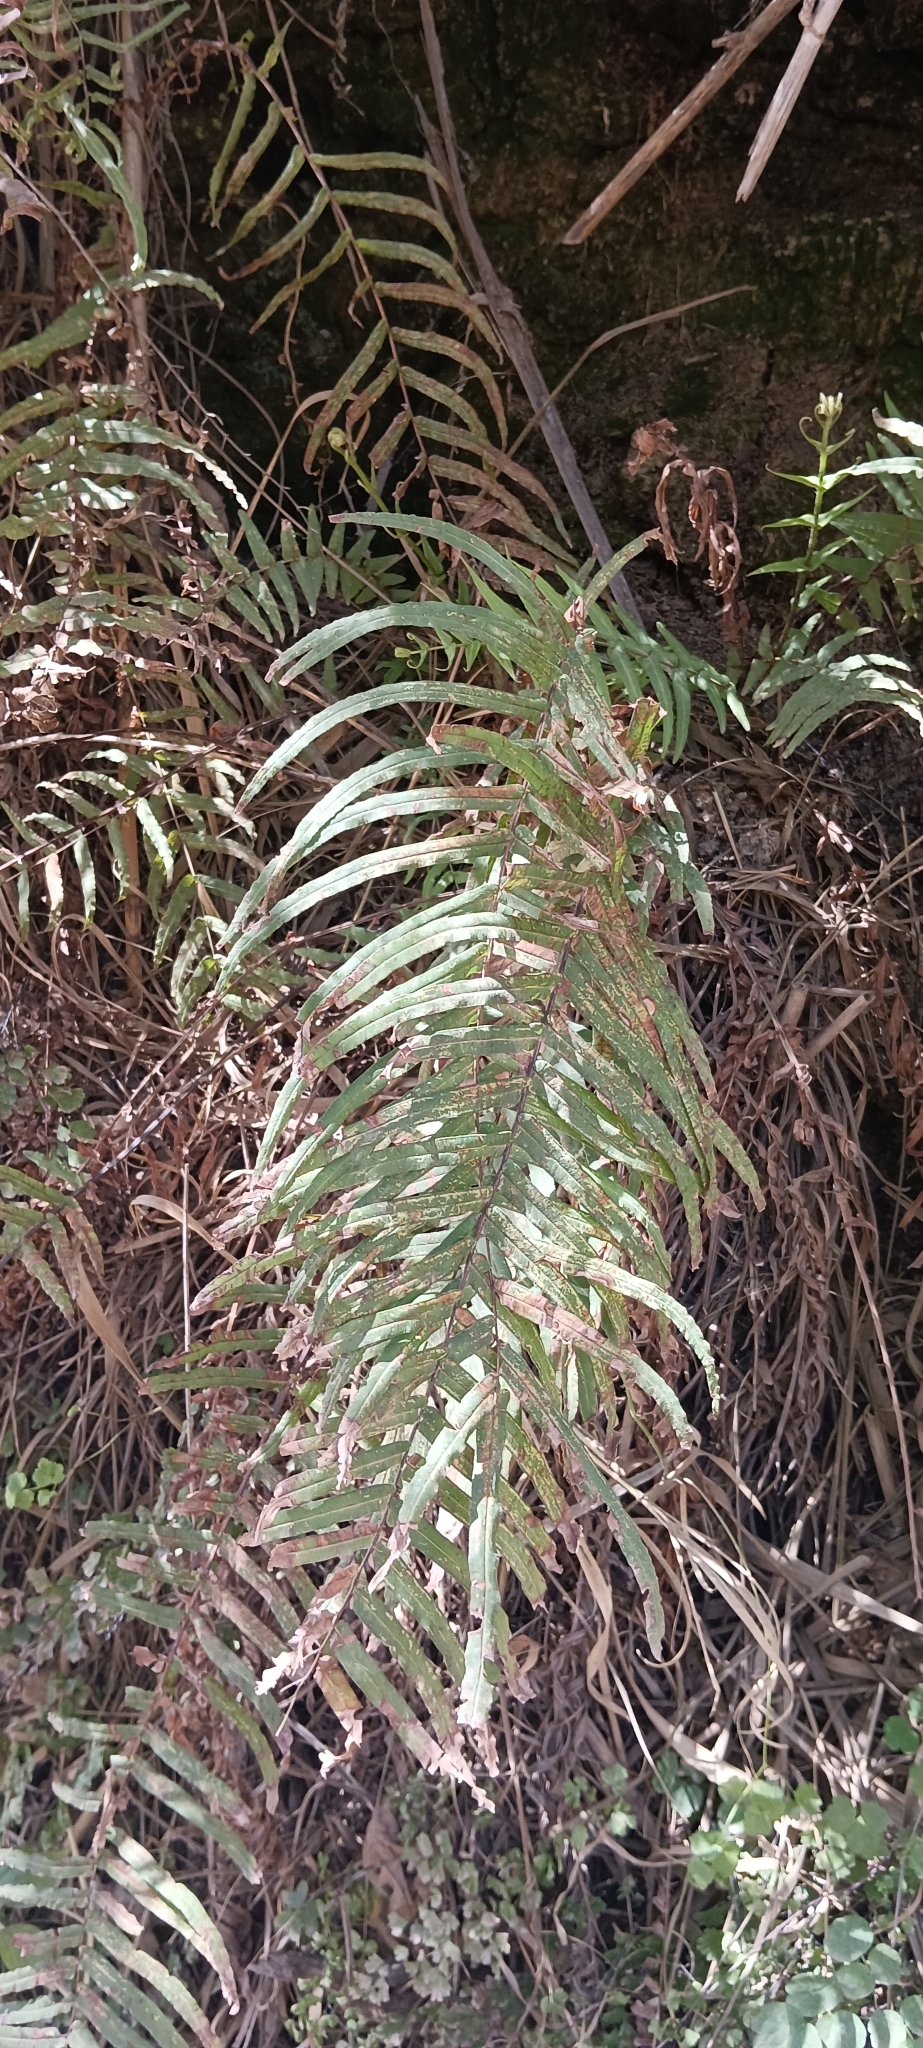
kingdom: Plantae
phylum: Tracheophyta
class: Polypodiopsida
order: Polypodiales
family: Pteridaceae
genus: Pteris
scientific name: Pteris vittata
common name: Ladder brake
